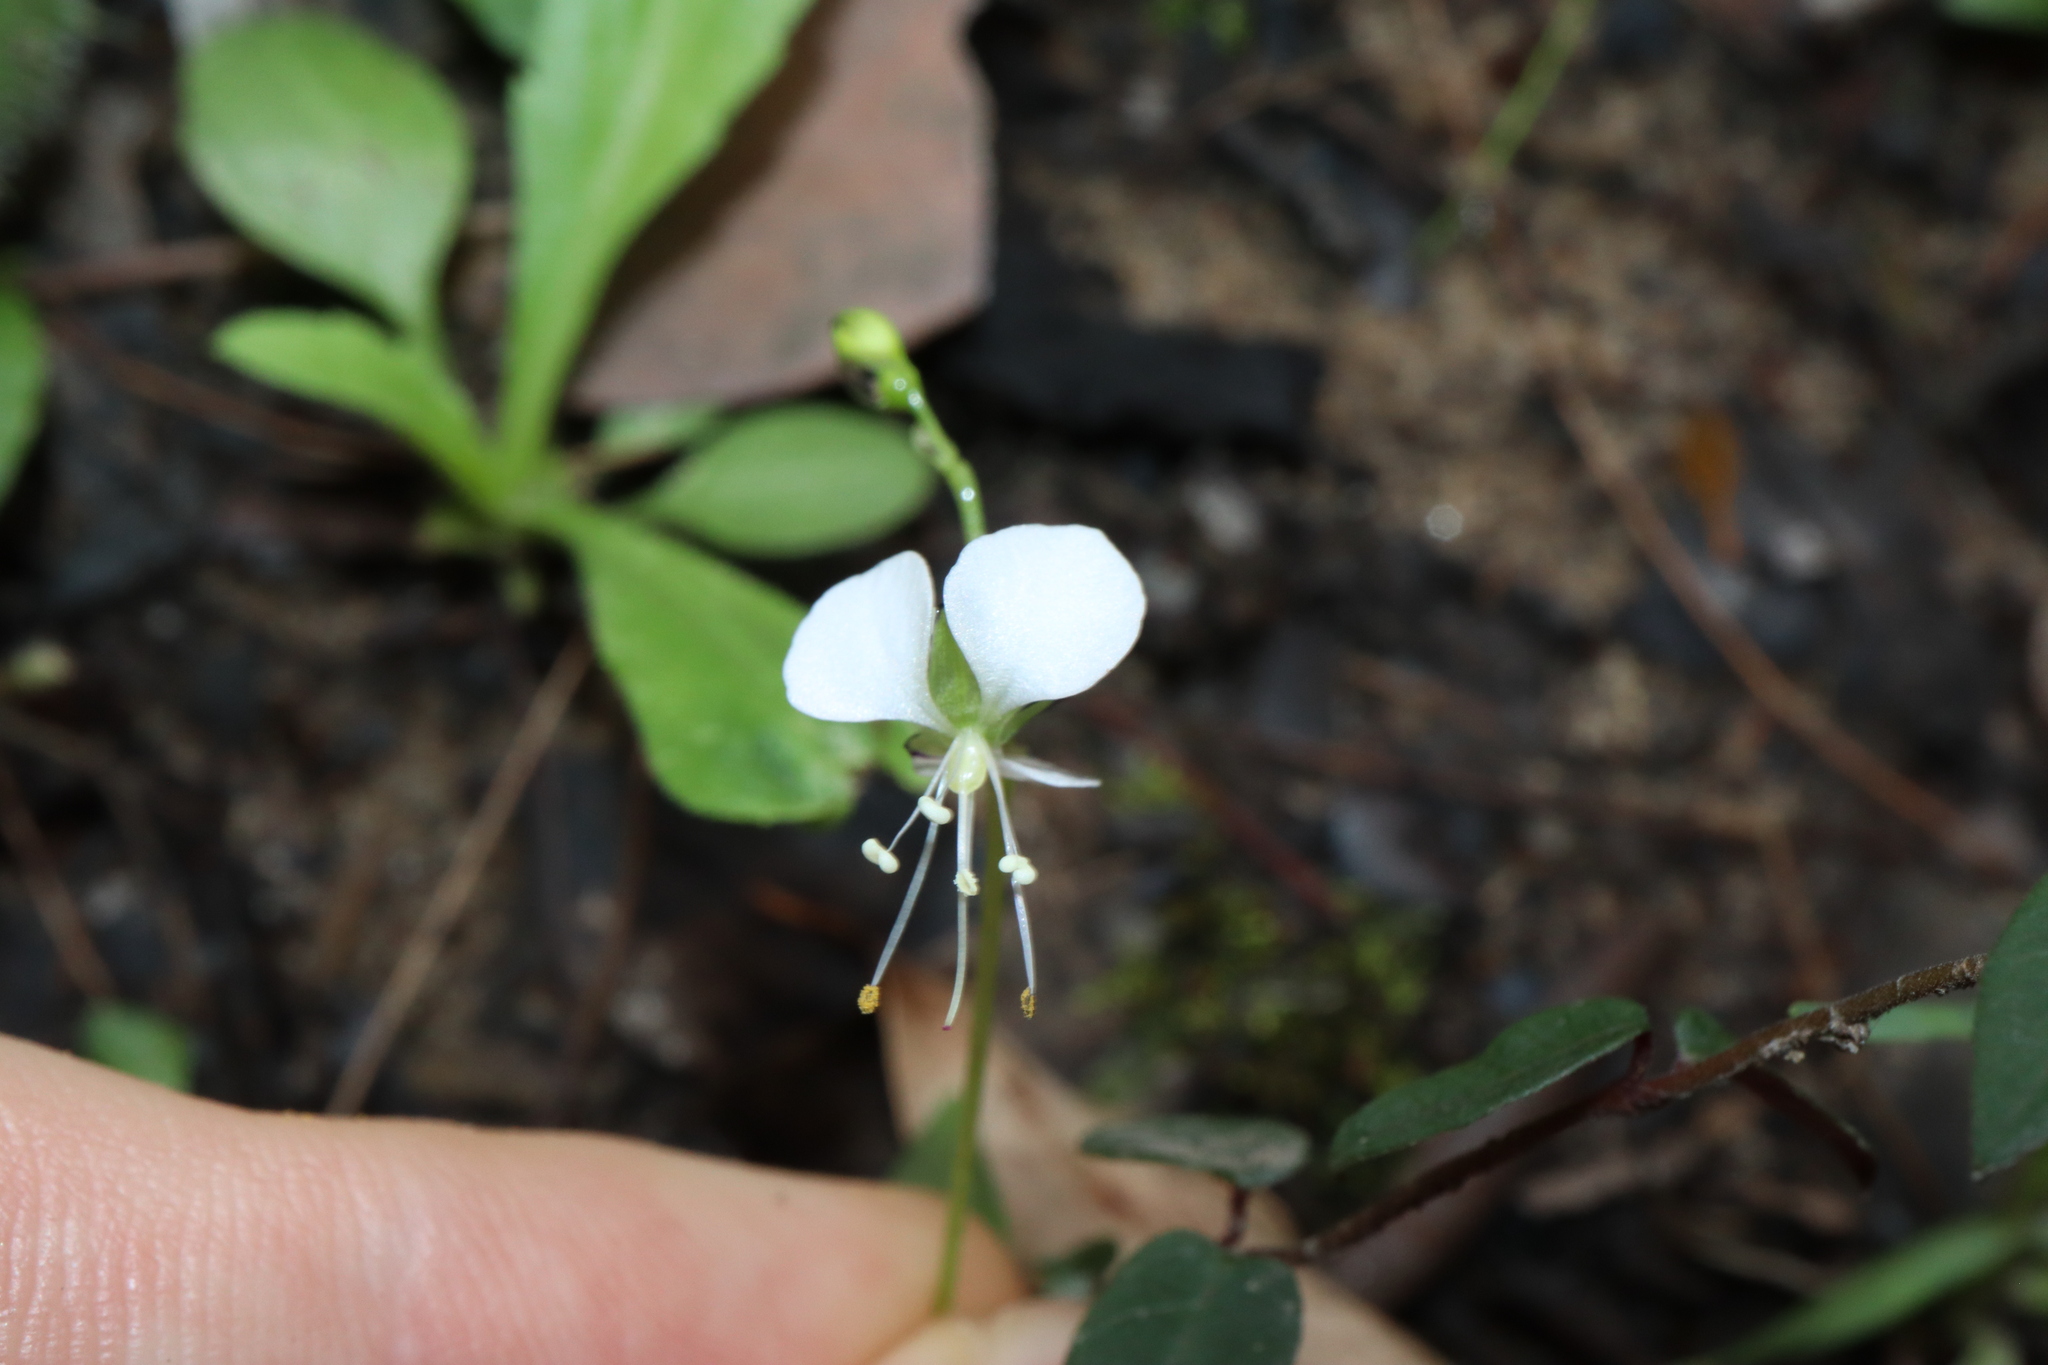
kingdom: Plantae
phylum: Tracheophyta
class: Liliopsida
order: Commelinales
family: Commelinaceae
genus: Aneilema
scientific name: Aneilema acuminatum
